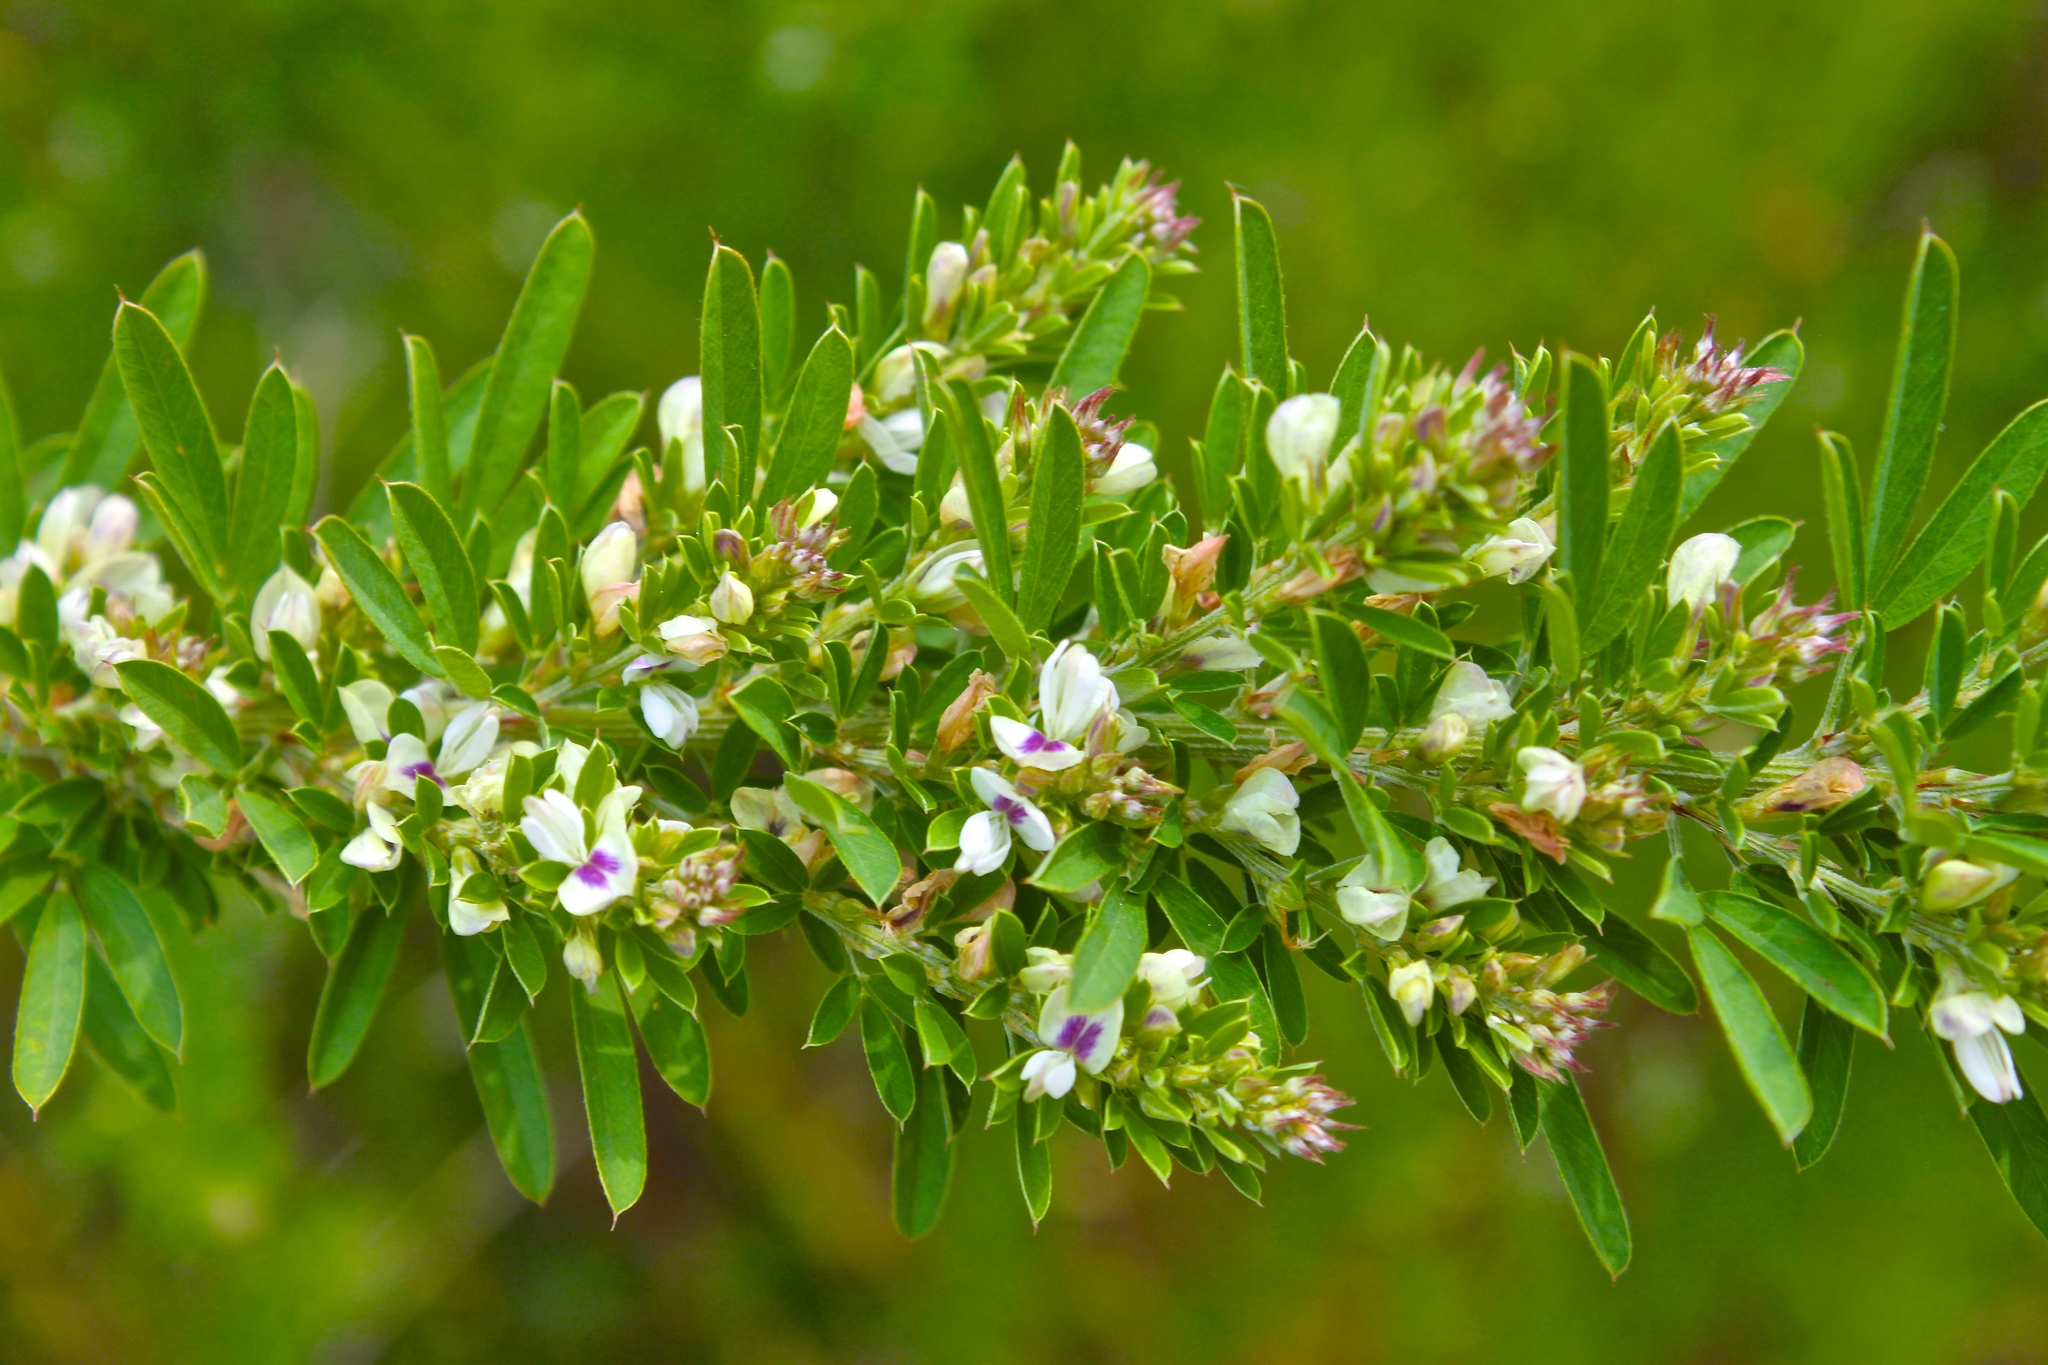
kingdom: Plantae
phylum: Tracheophyta
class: Magnoliopsida
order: Fabales
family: Fabaceae
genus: Lespedeza
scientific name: Lespedeza cuneata
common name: Chinese bush-clover
